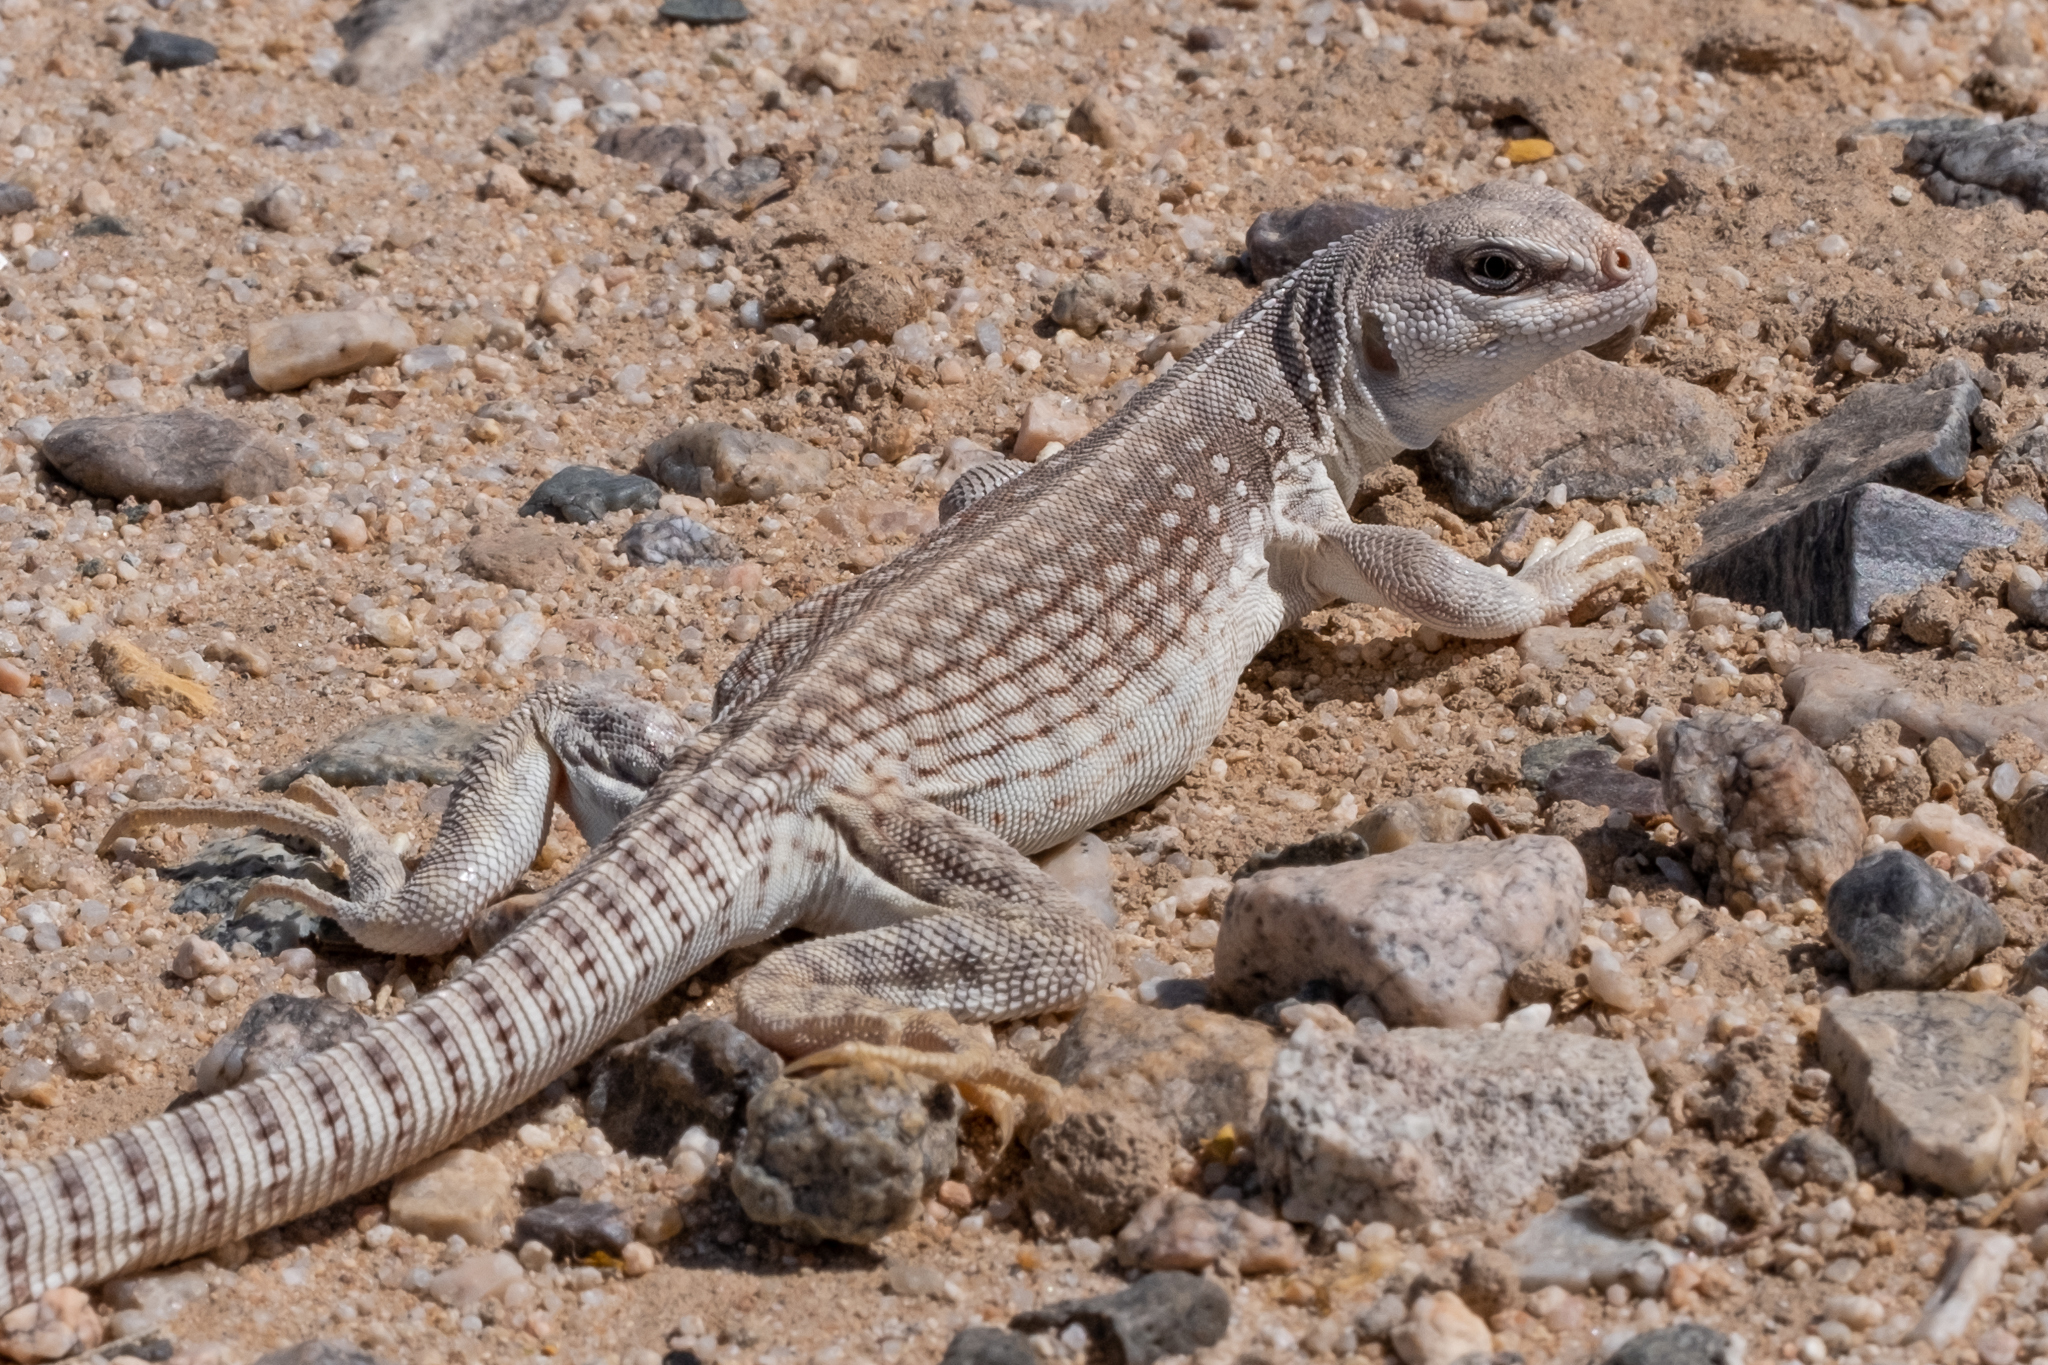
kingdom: Animalia
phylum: Chordata
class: Squamata
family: Iguanidae
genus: Dipsosaurus
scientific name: Dipsosaurus dorsalis
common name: Desert iguana
